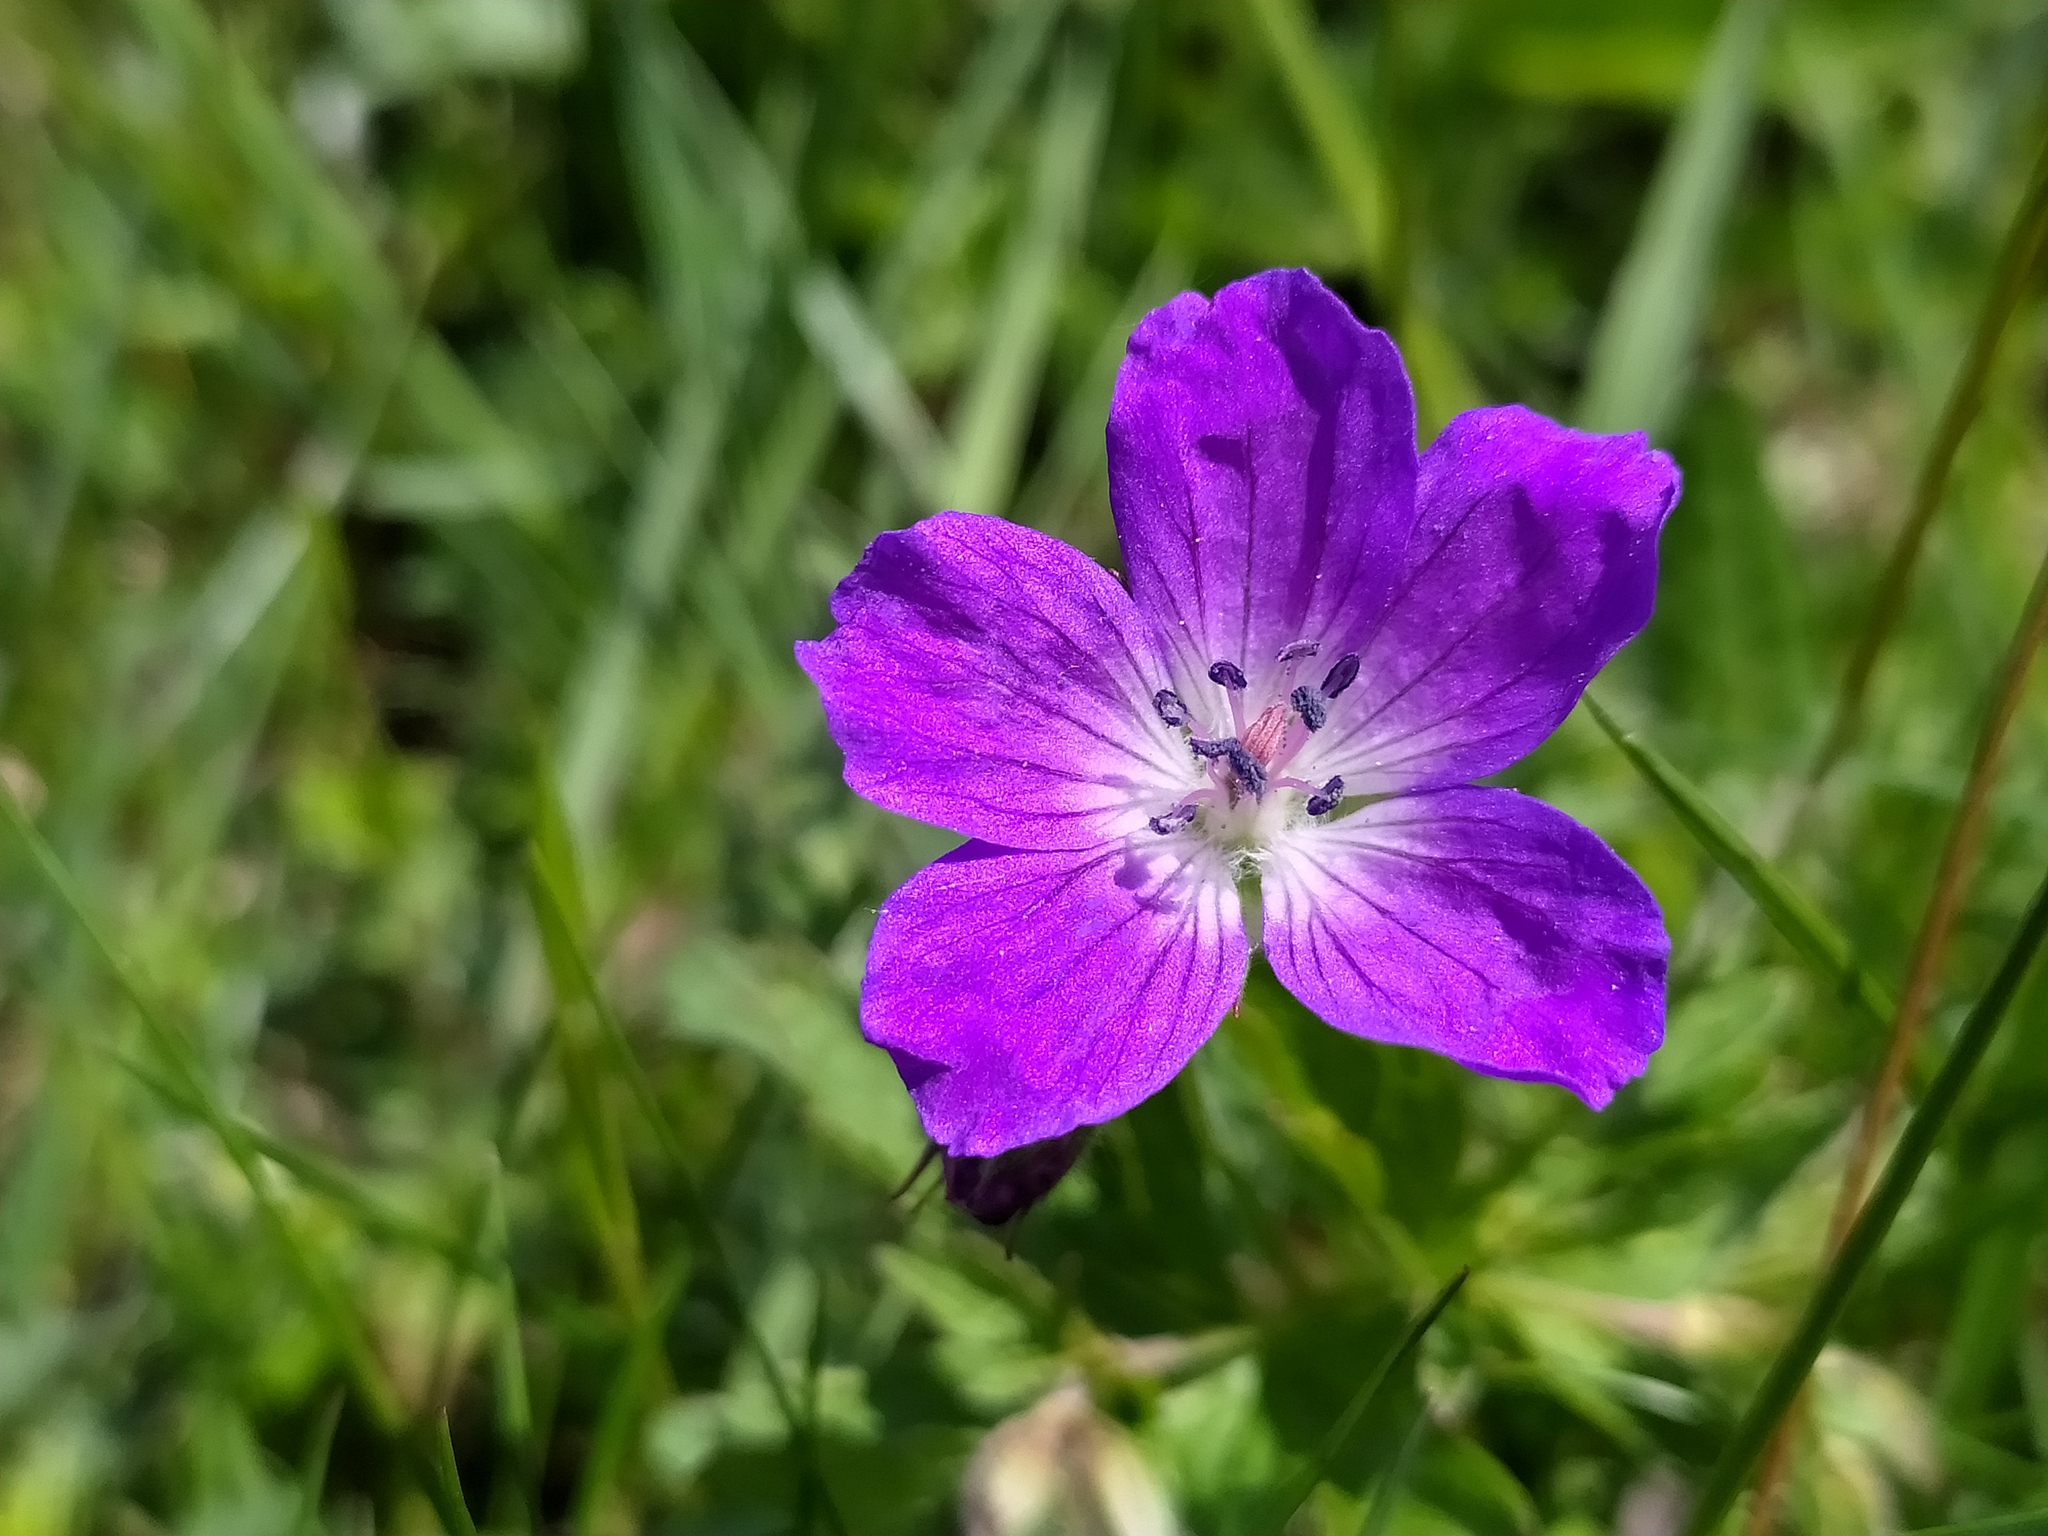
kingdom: Plantae
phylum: Tracheophyta
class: Magnoliopsida
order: Geraniales
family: Geraniaceae
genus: Geranium
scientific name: Geranium sylvaticum
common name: Wood crane's-bill
